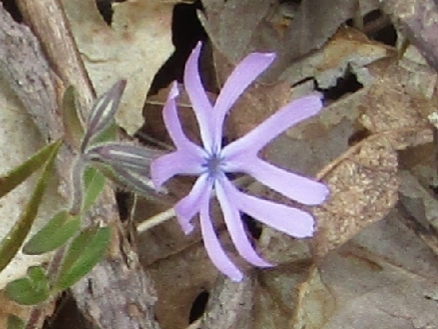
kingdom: Plantae
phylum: Tracheophyta
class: Magnoliopsida
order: Ericales
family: Polemoniaceae
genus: Phlox
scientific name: Phlox bifida
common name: Sand phlox
